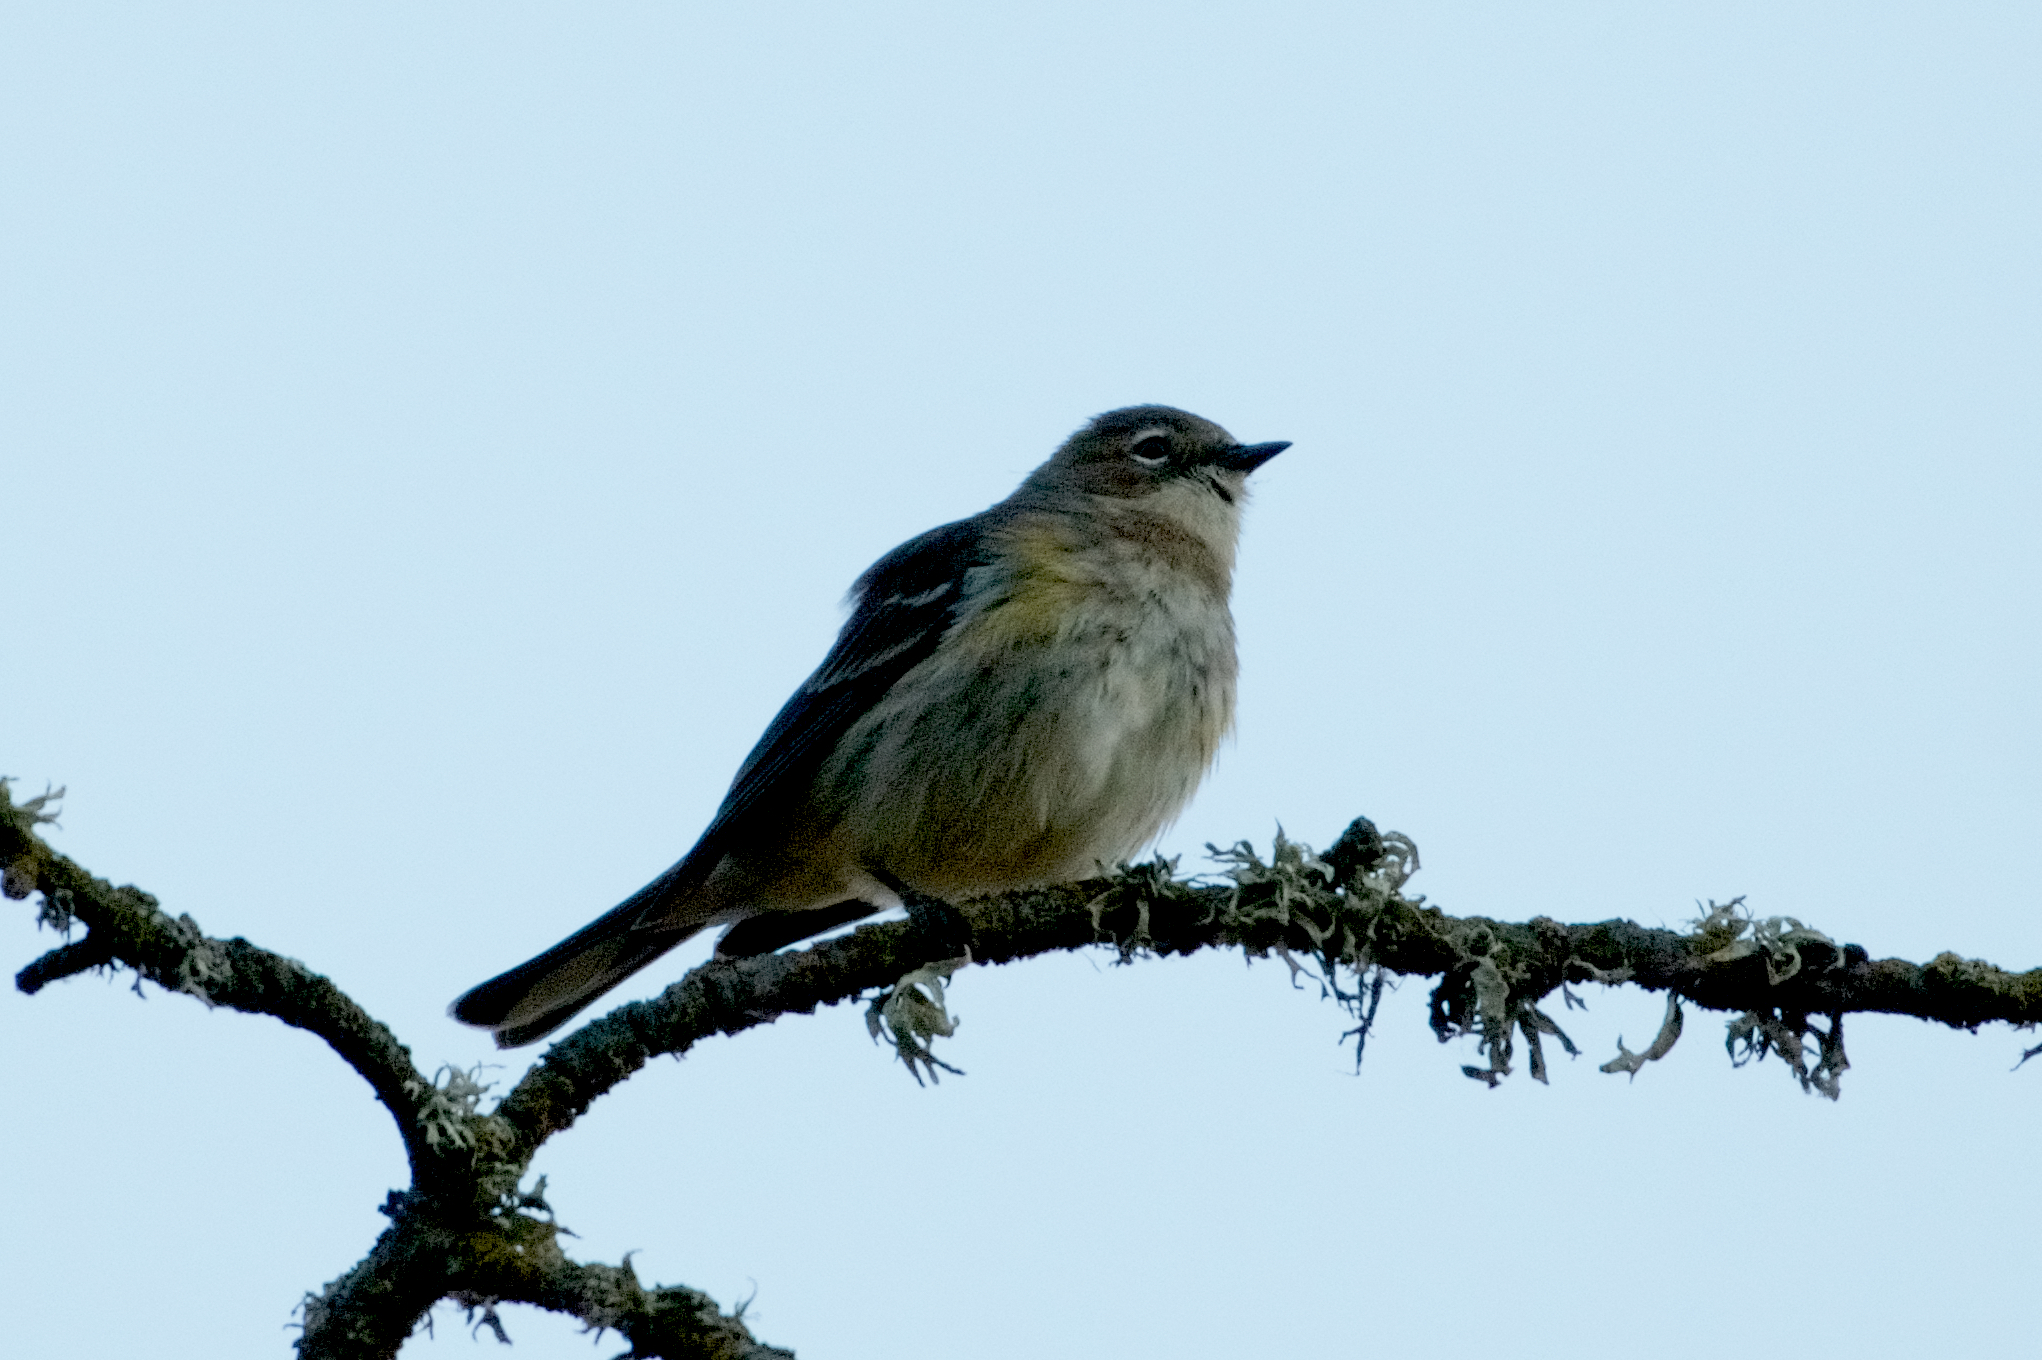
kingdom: Animalia
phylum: Chordata
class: Aves
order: Passeriformes
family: Parulidae
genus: Setophaga
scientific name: Setophaga coronata
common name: Myrtle warbler
